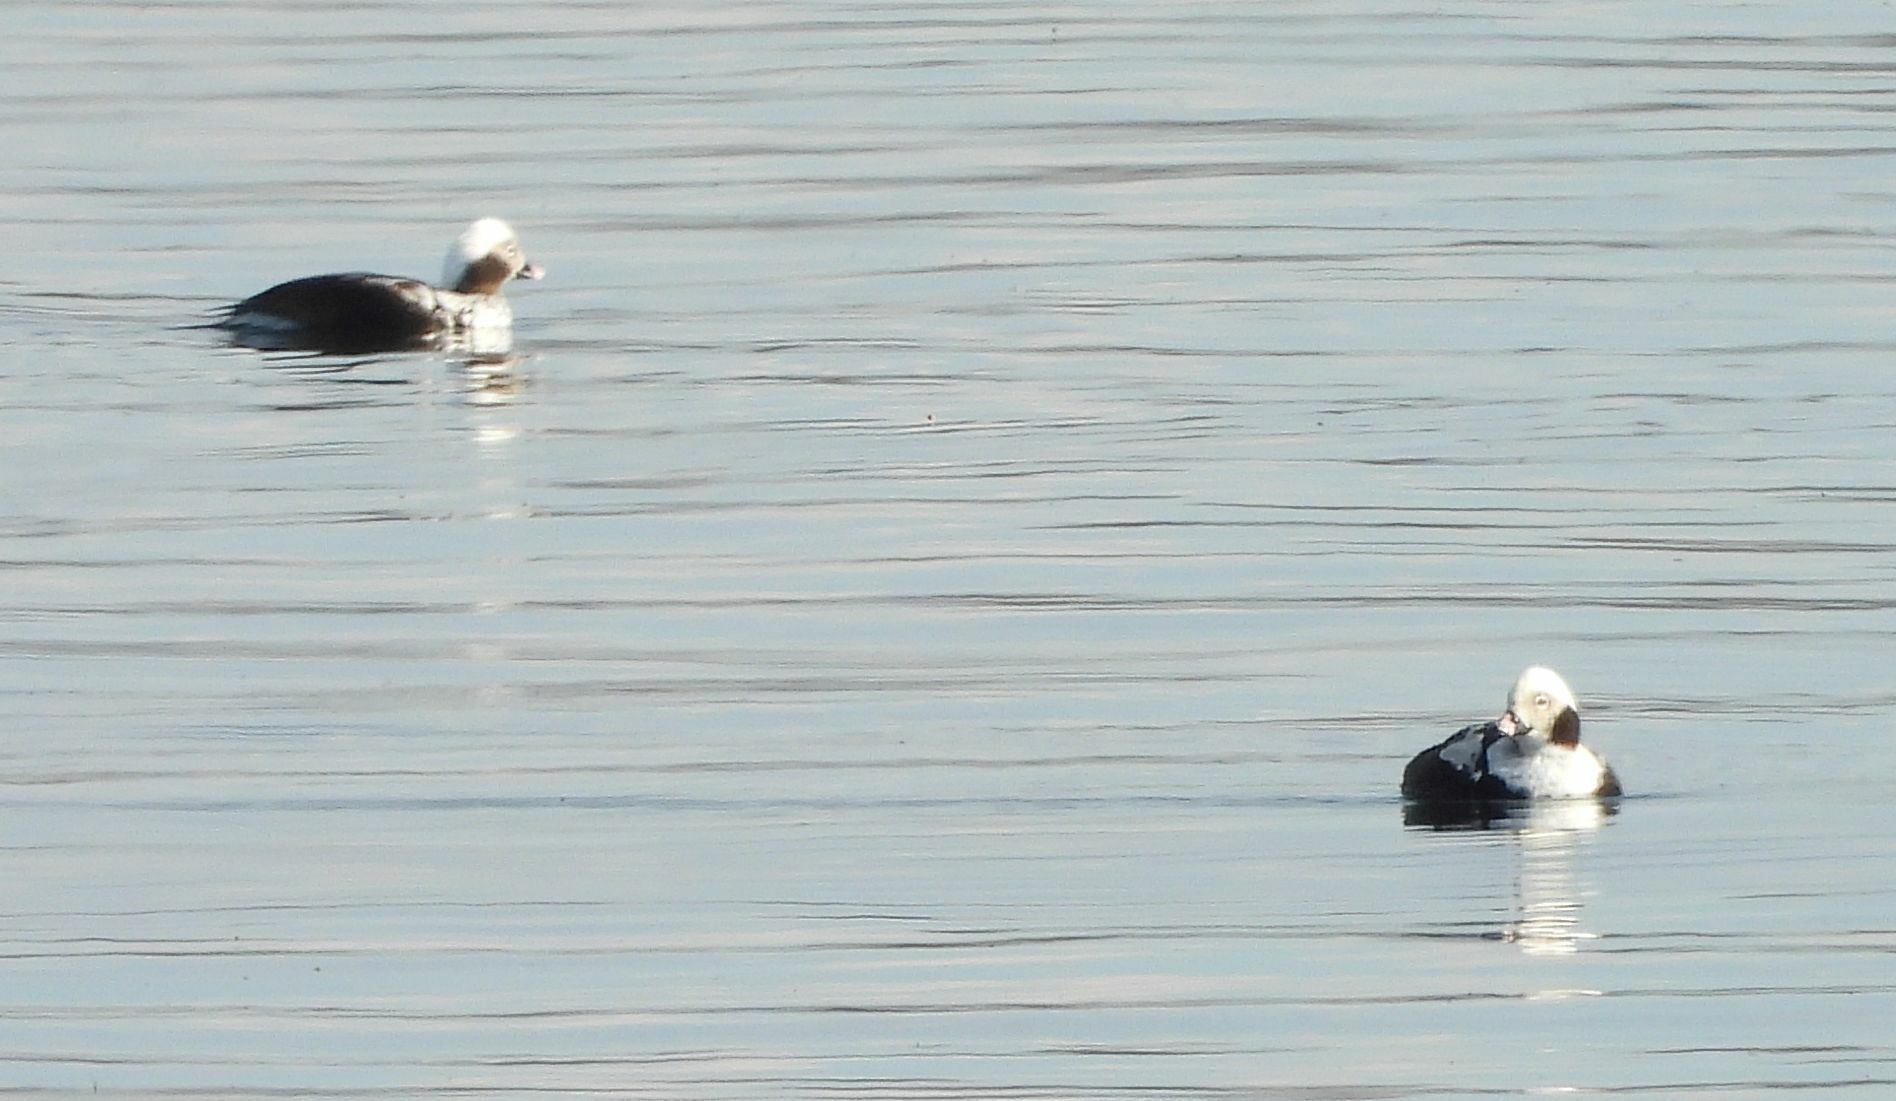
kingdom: Animalia
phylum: Chordata
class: Aves
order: Anseriformes
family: Anatidae
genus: Clangula
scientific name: Clangula hyemalis
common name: Long-tailed duck
